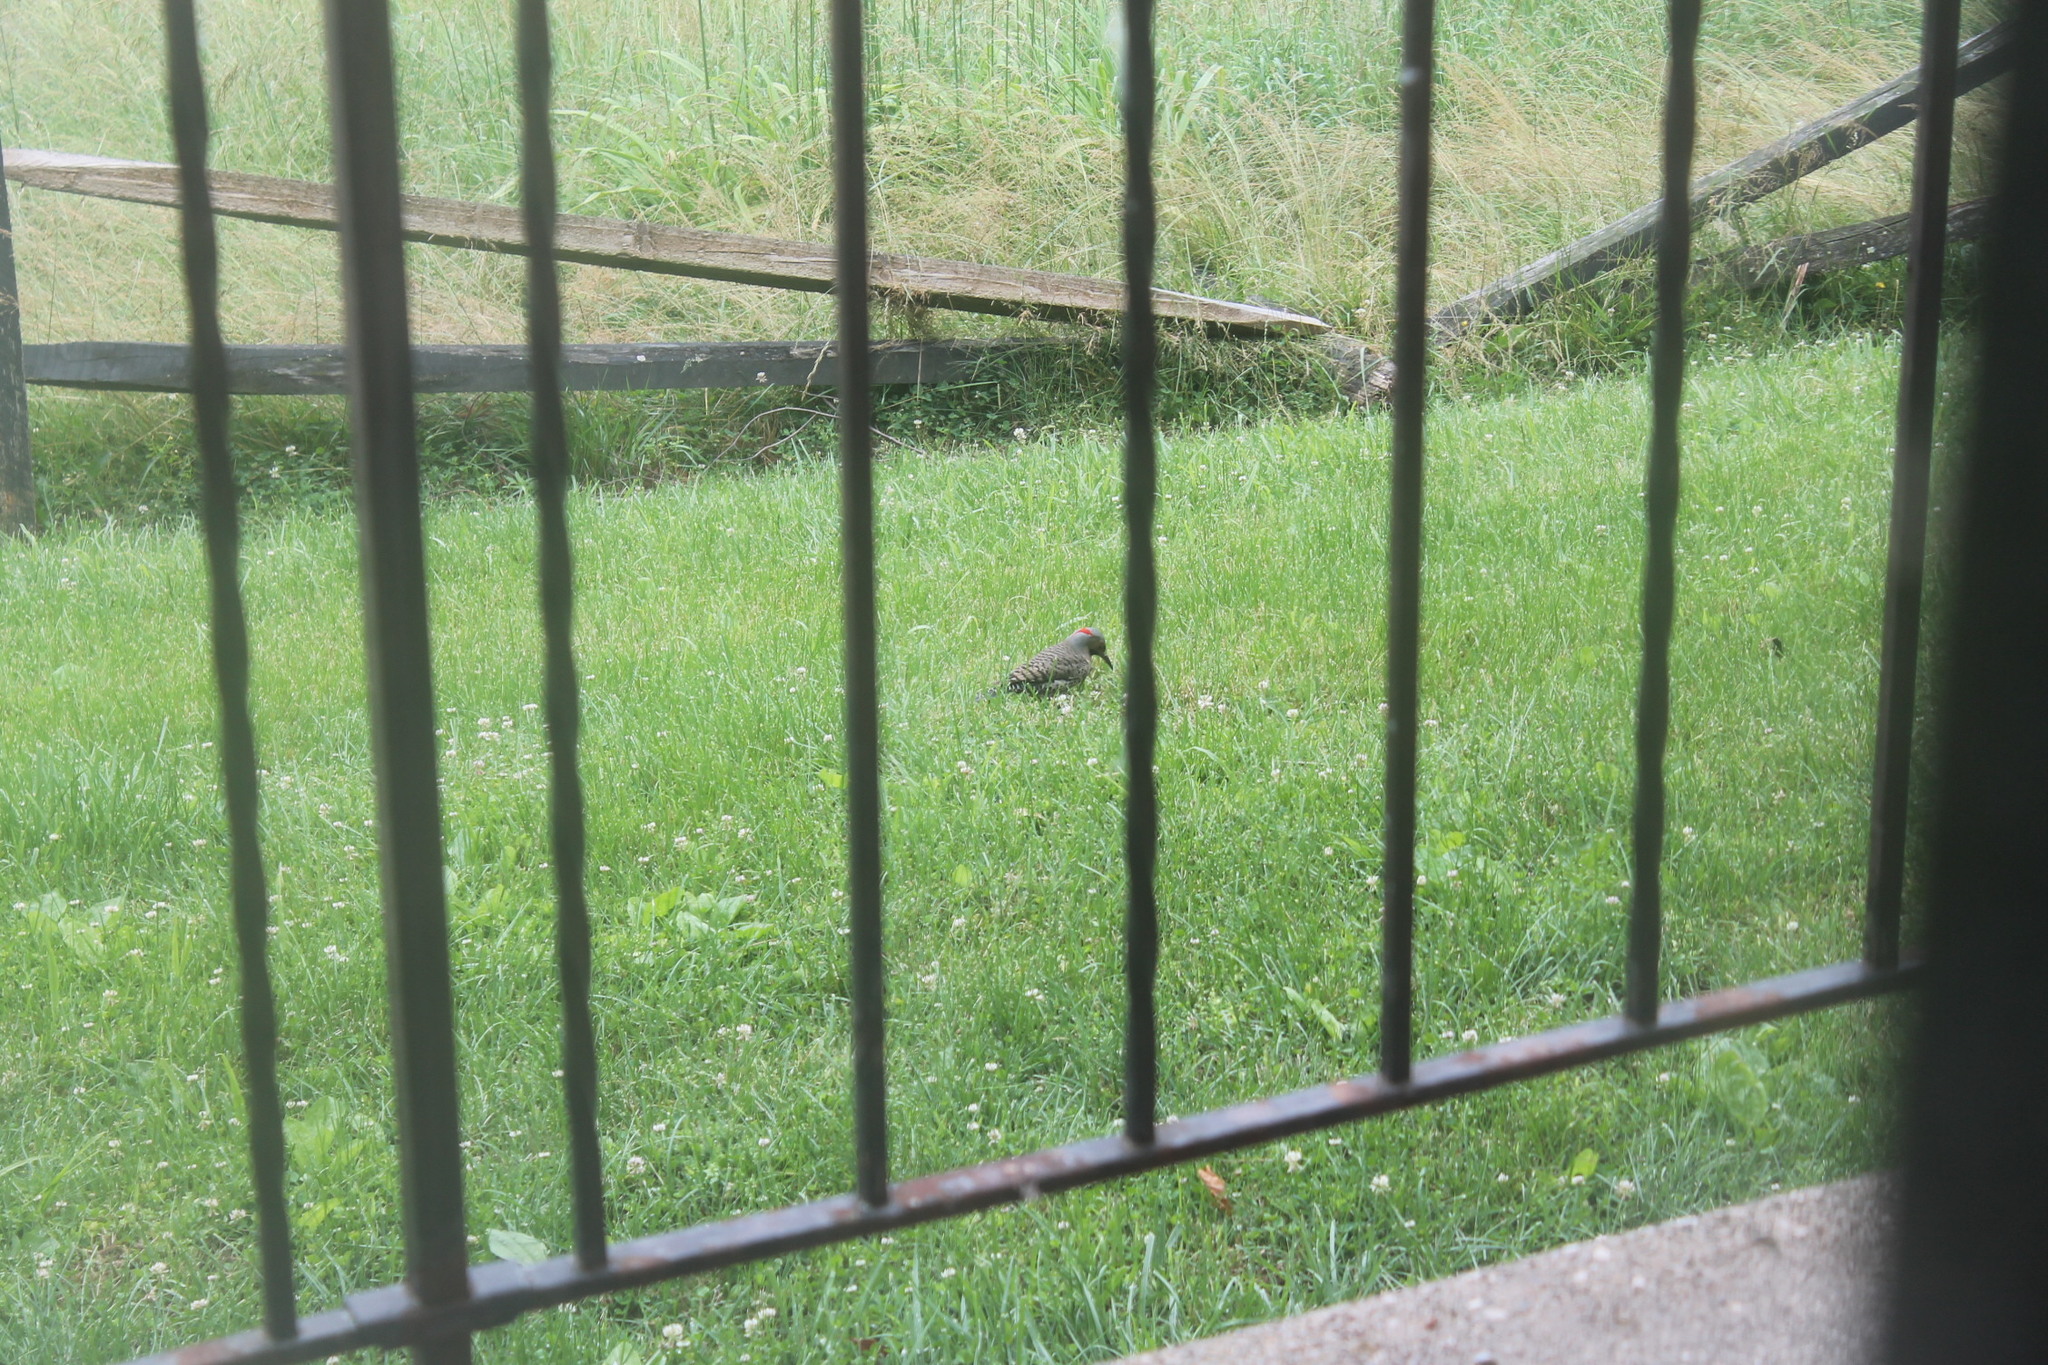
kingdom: Animalia
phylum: Chordata
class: Aves
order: Piciformes
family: Picidae
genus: Colaptes
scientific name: Colaptes auratus
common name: Northern flicker
